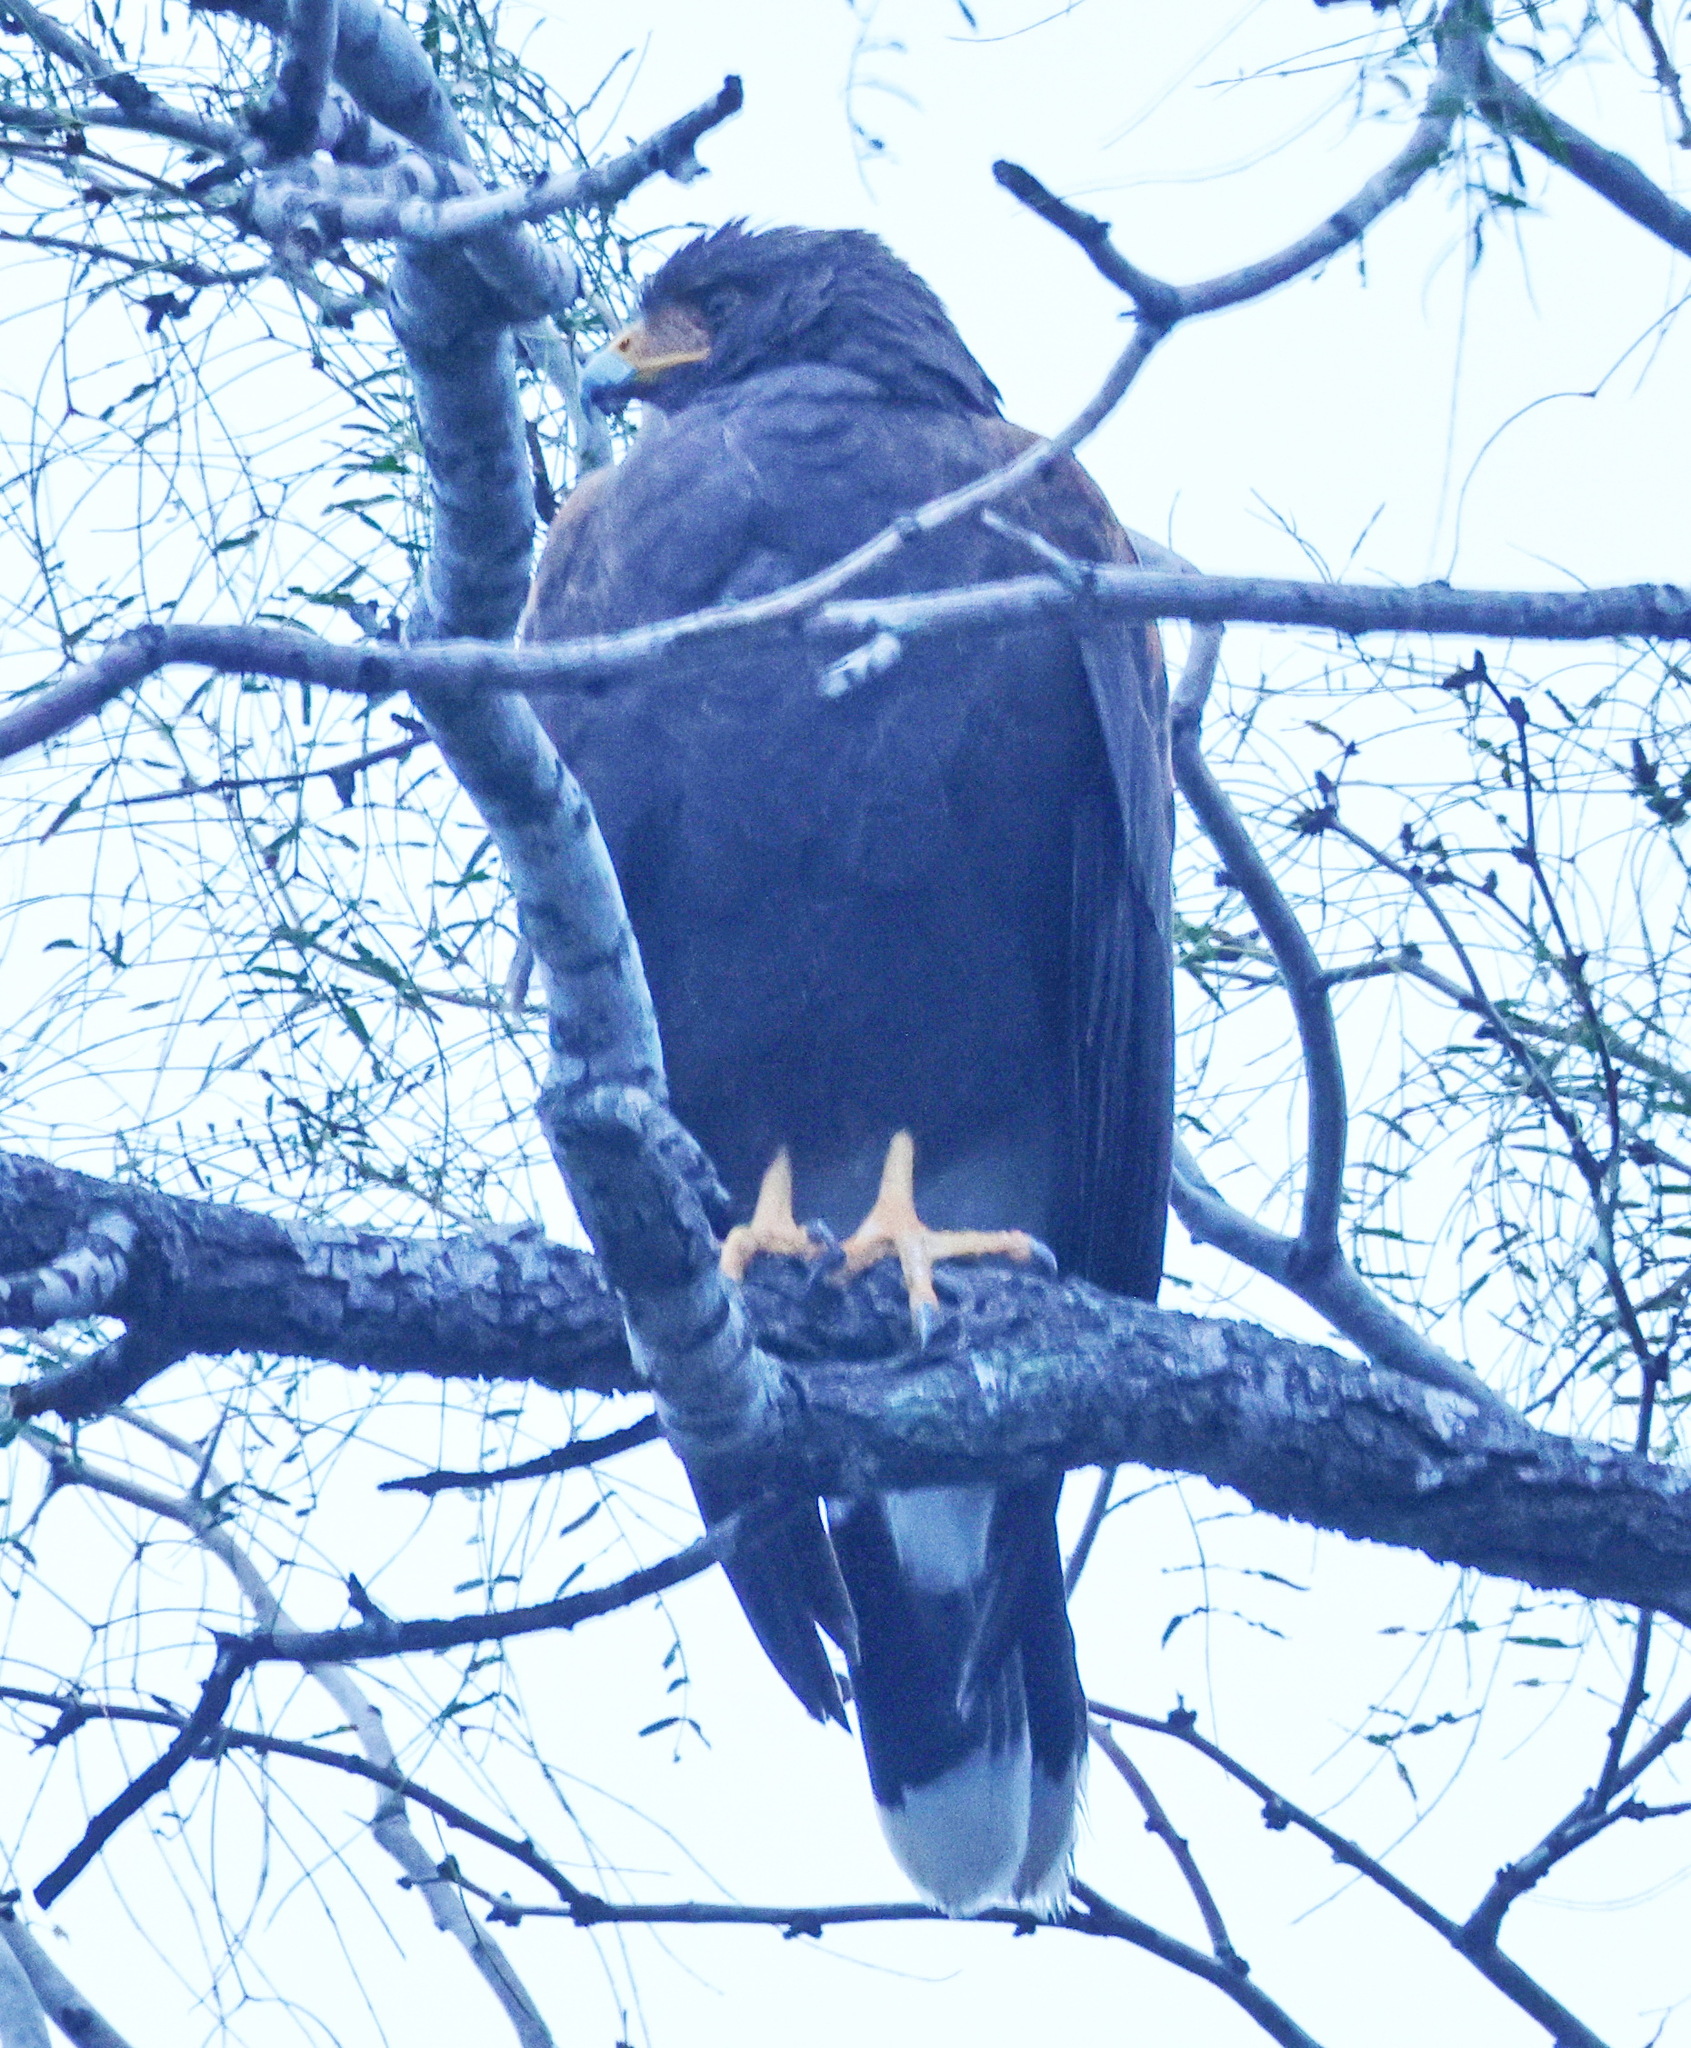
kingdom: Animalia
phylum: Chordata
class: Aves
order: Accipitriformes
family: Accipitridae
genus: Parabuteo
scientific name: Parabuteo unicinctus
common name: Harris's hawk
